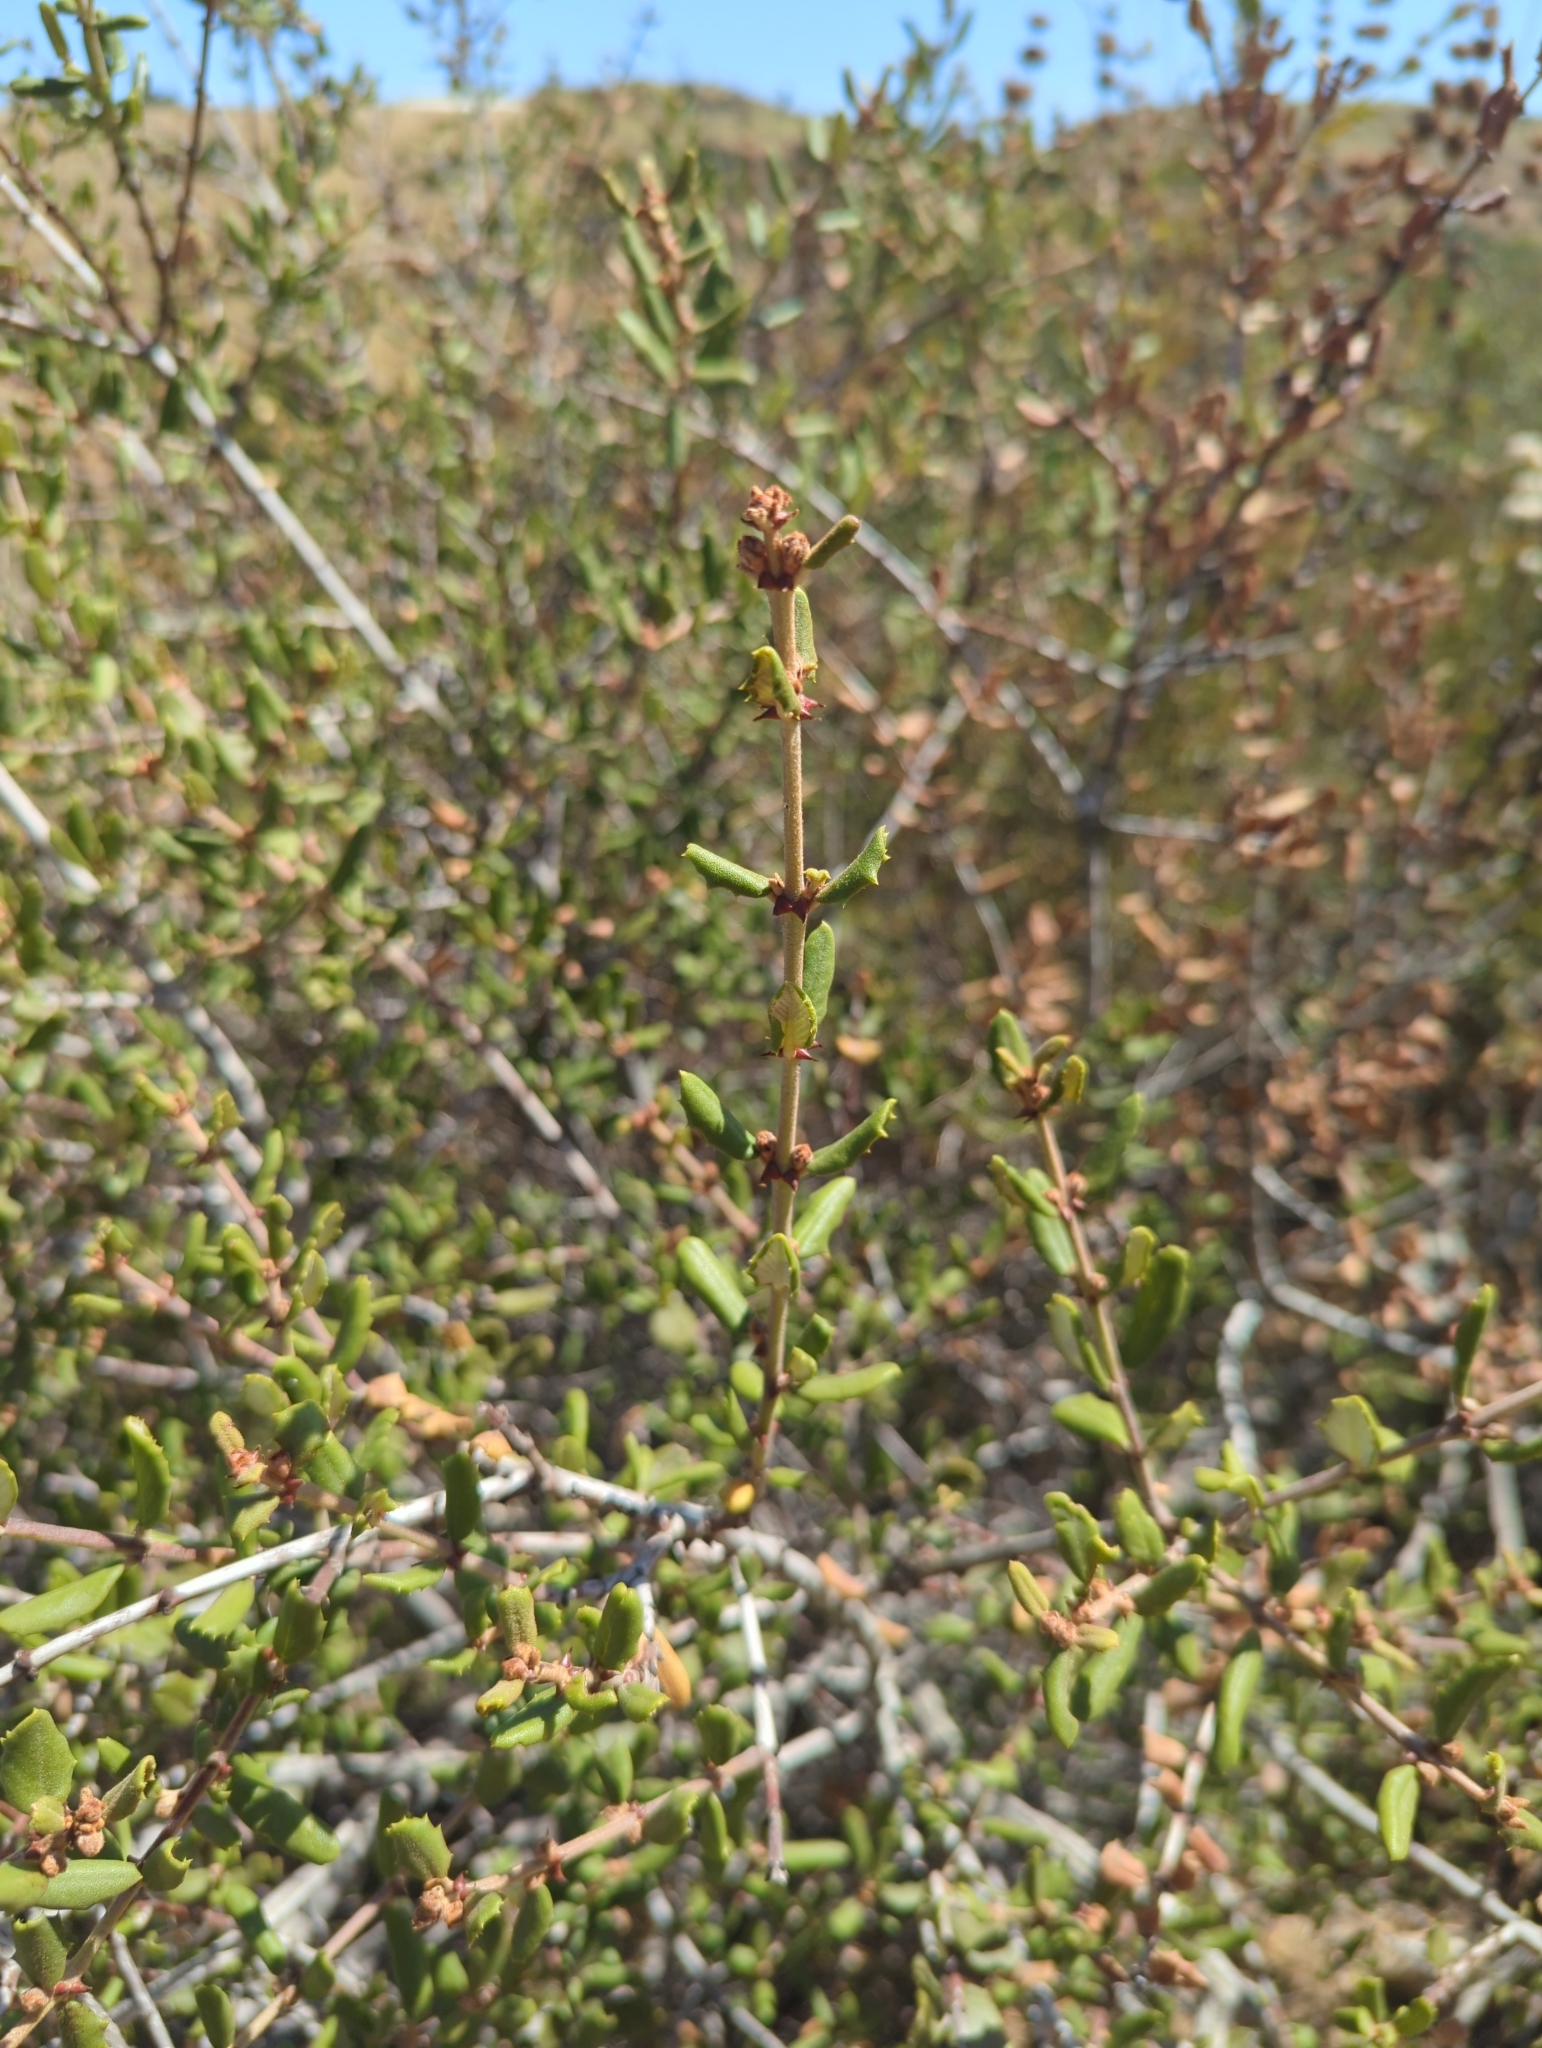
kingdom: Plantae
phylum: Tracheophyta
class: Magnoliopsida
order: Rosales
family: Rhamnaceae
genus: Ceanothus
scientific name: Ceanothus crassifolius
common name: Hoaryleaf ceanothus
